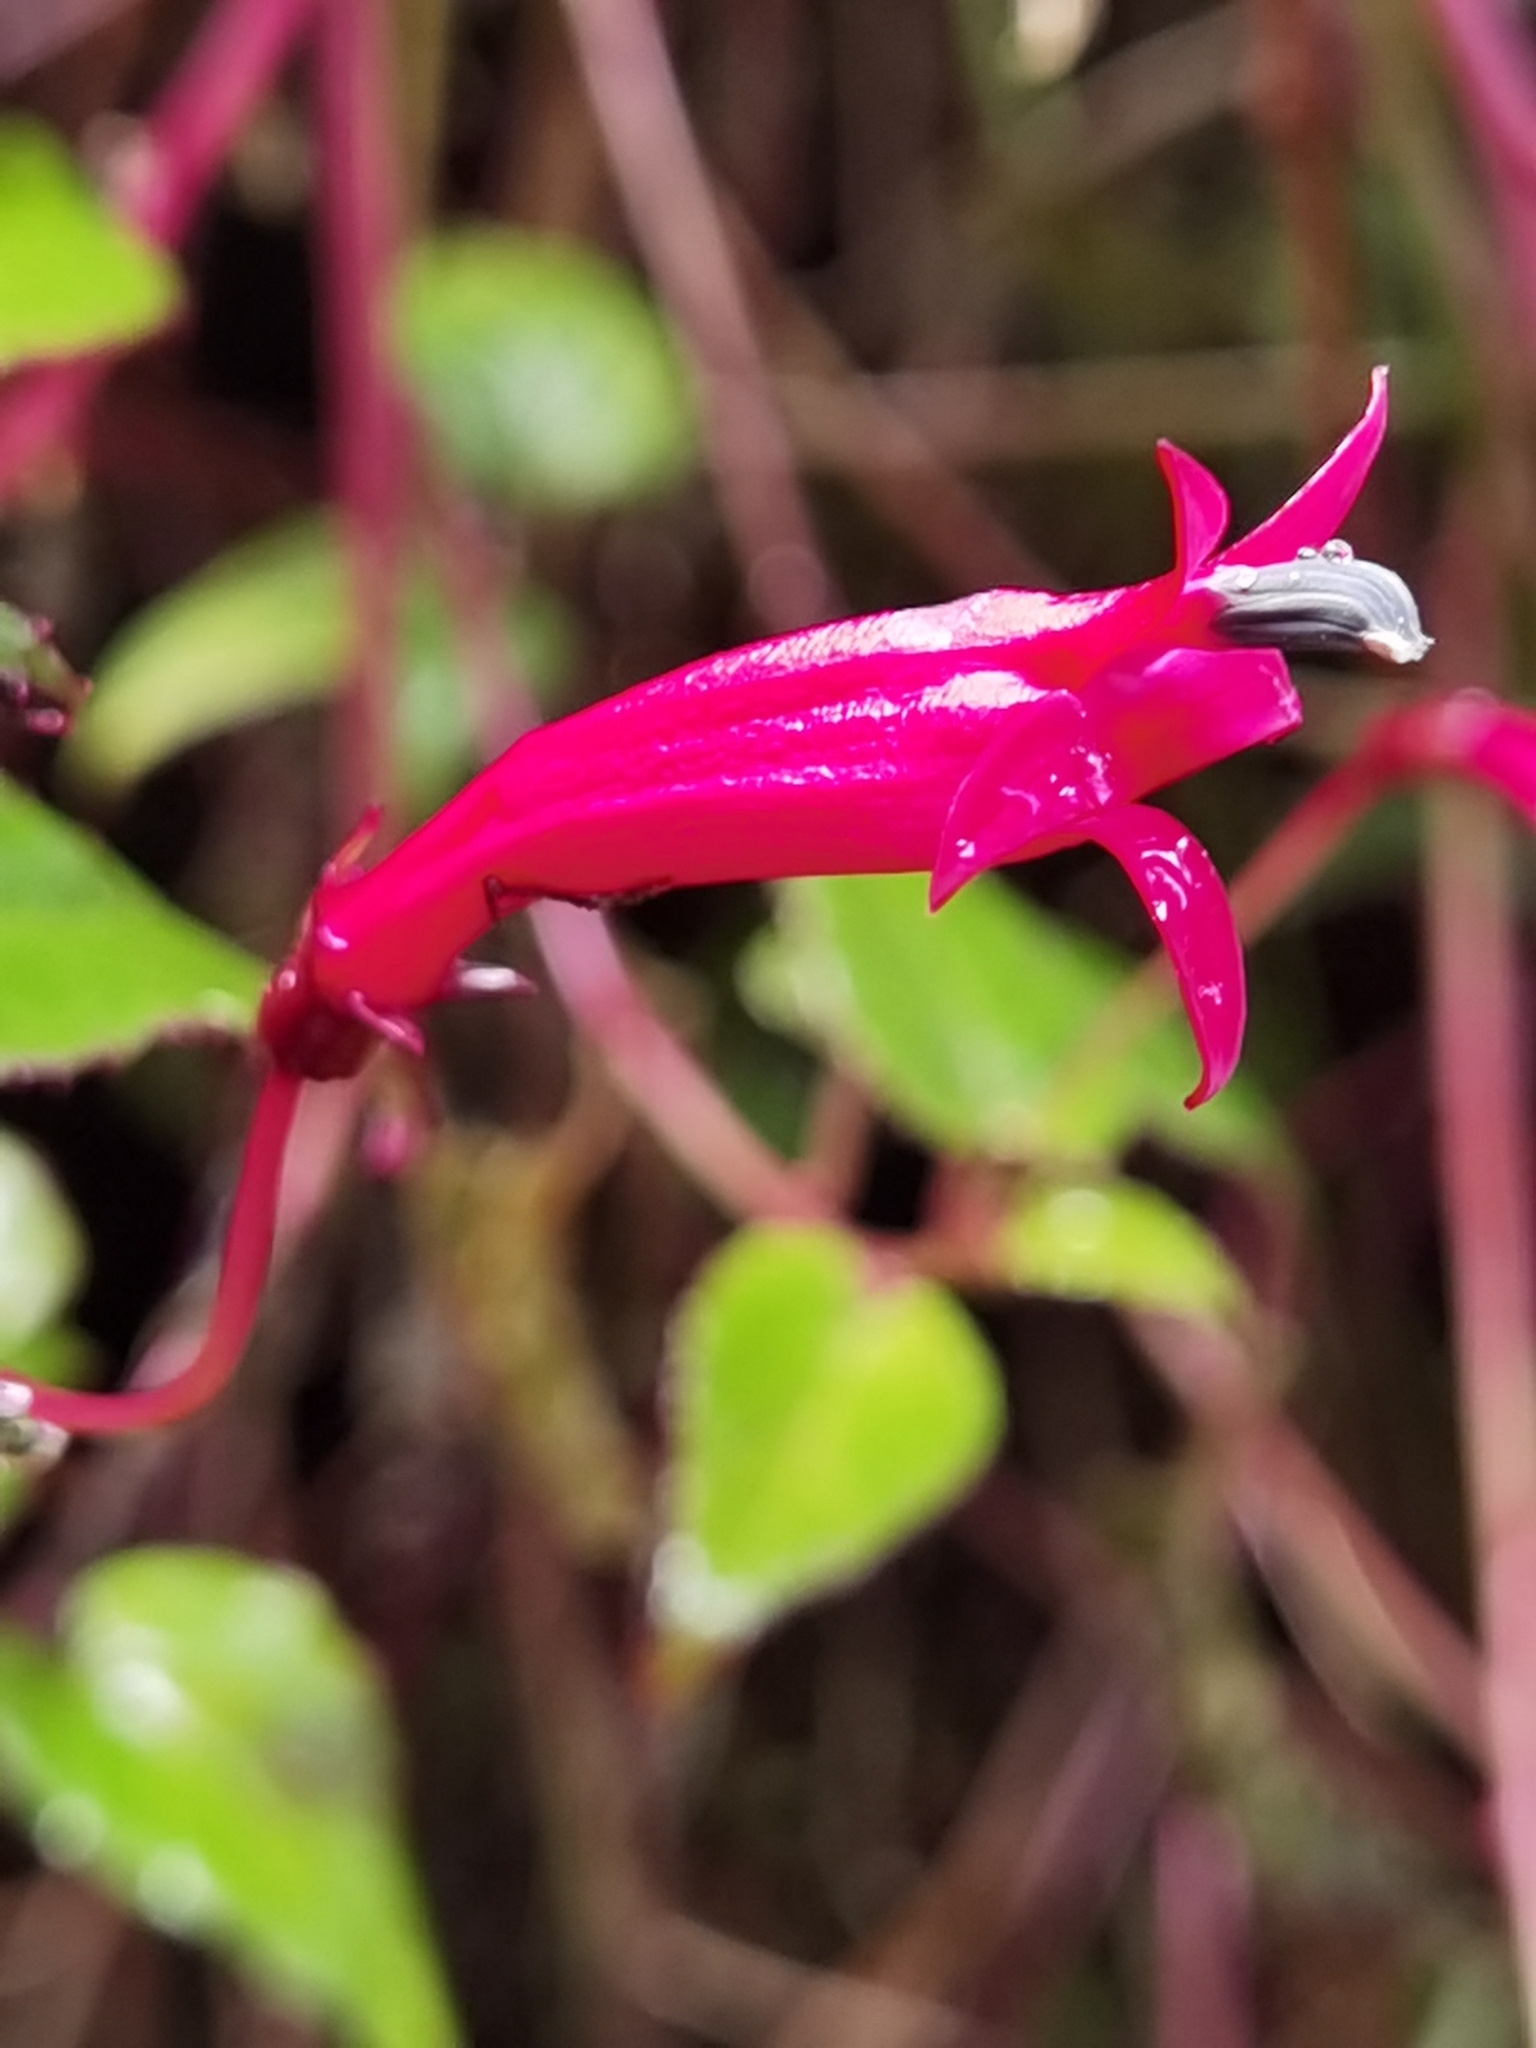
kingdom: Plantae
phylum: Tracheophyta
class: Magnoliopsida
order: Asterales
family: Campanulaceae
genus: Centropogon
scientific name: Centropogon costaricae
